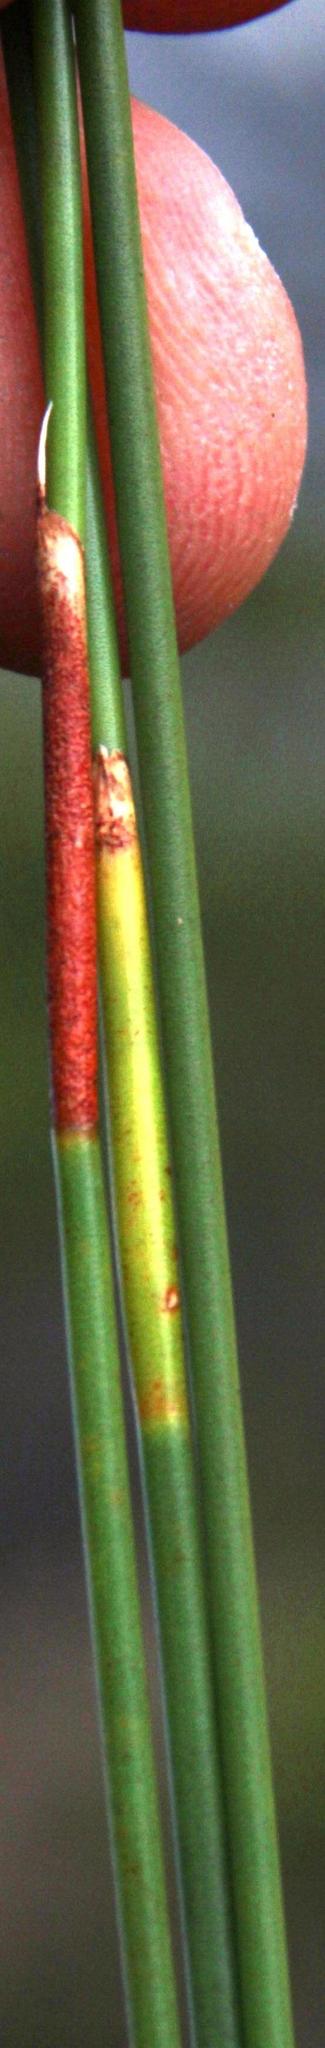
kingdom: Plantae
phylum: Tracheophyta
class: Liliopsida
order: Poales
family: Restionaceae
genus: Hypodiscus
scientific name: Hypodiscus aristatus
